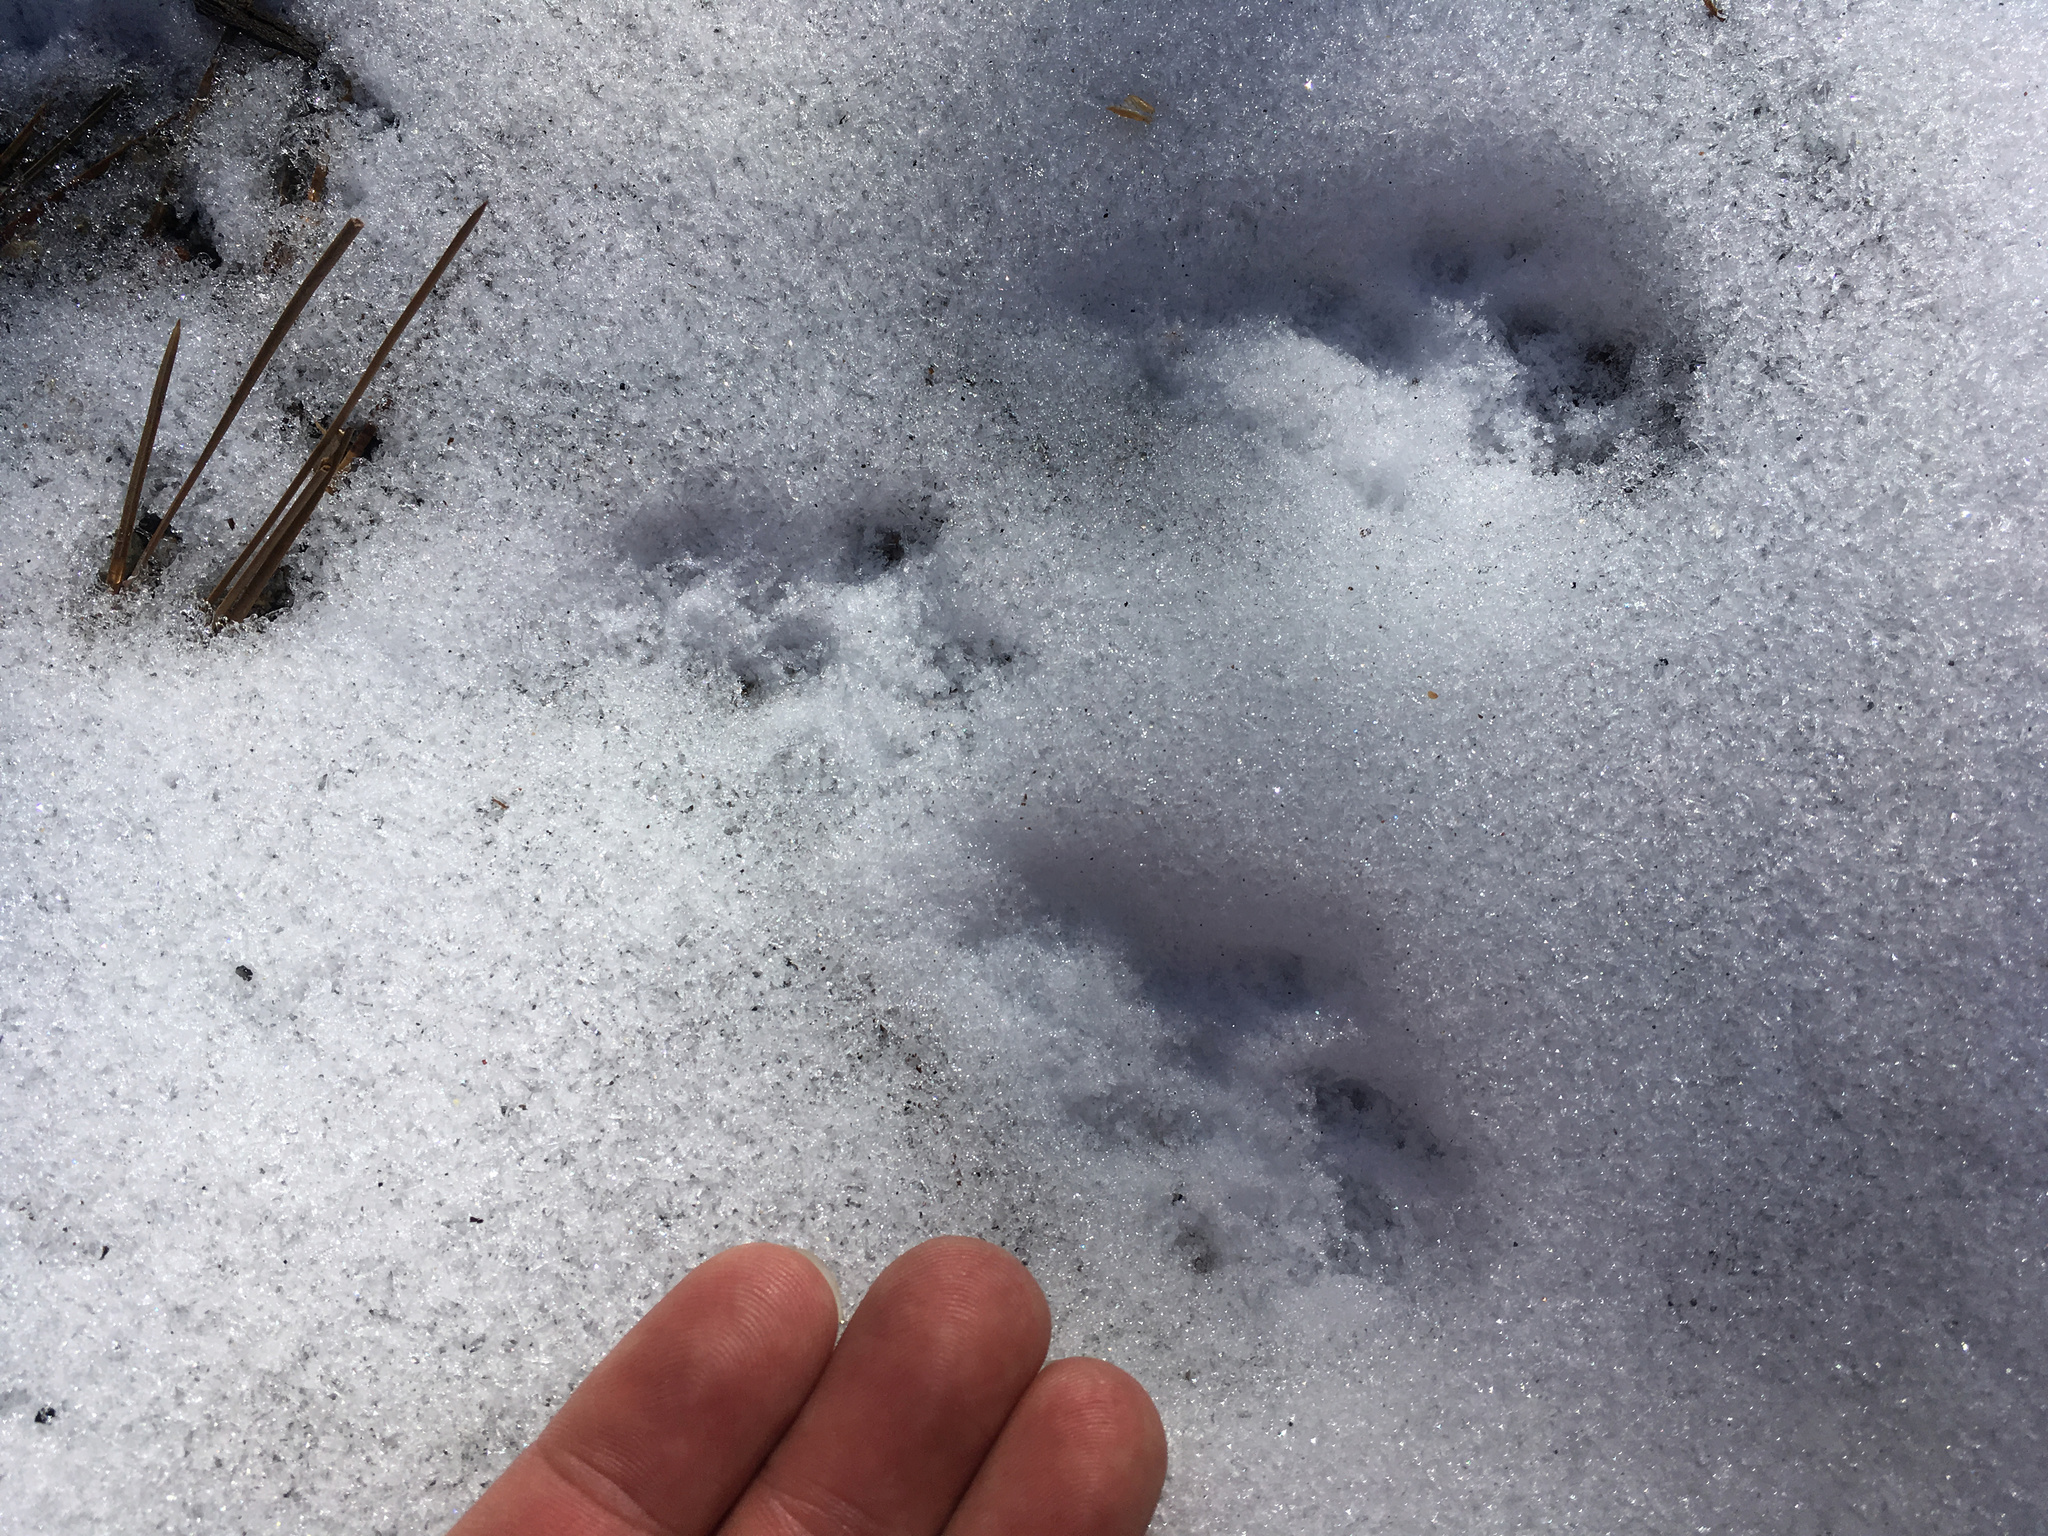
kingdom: Animalia
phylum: Chordata
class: Mammalia
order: Rodentia
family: Sciuridae
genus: Sciurus
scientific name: Sciurus griseus
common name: Western gray squirrel
